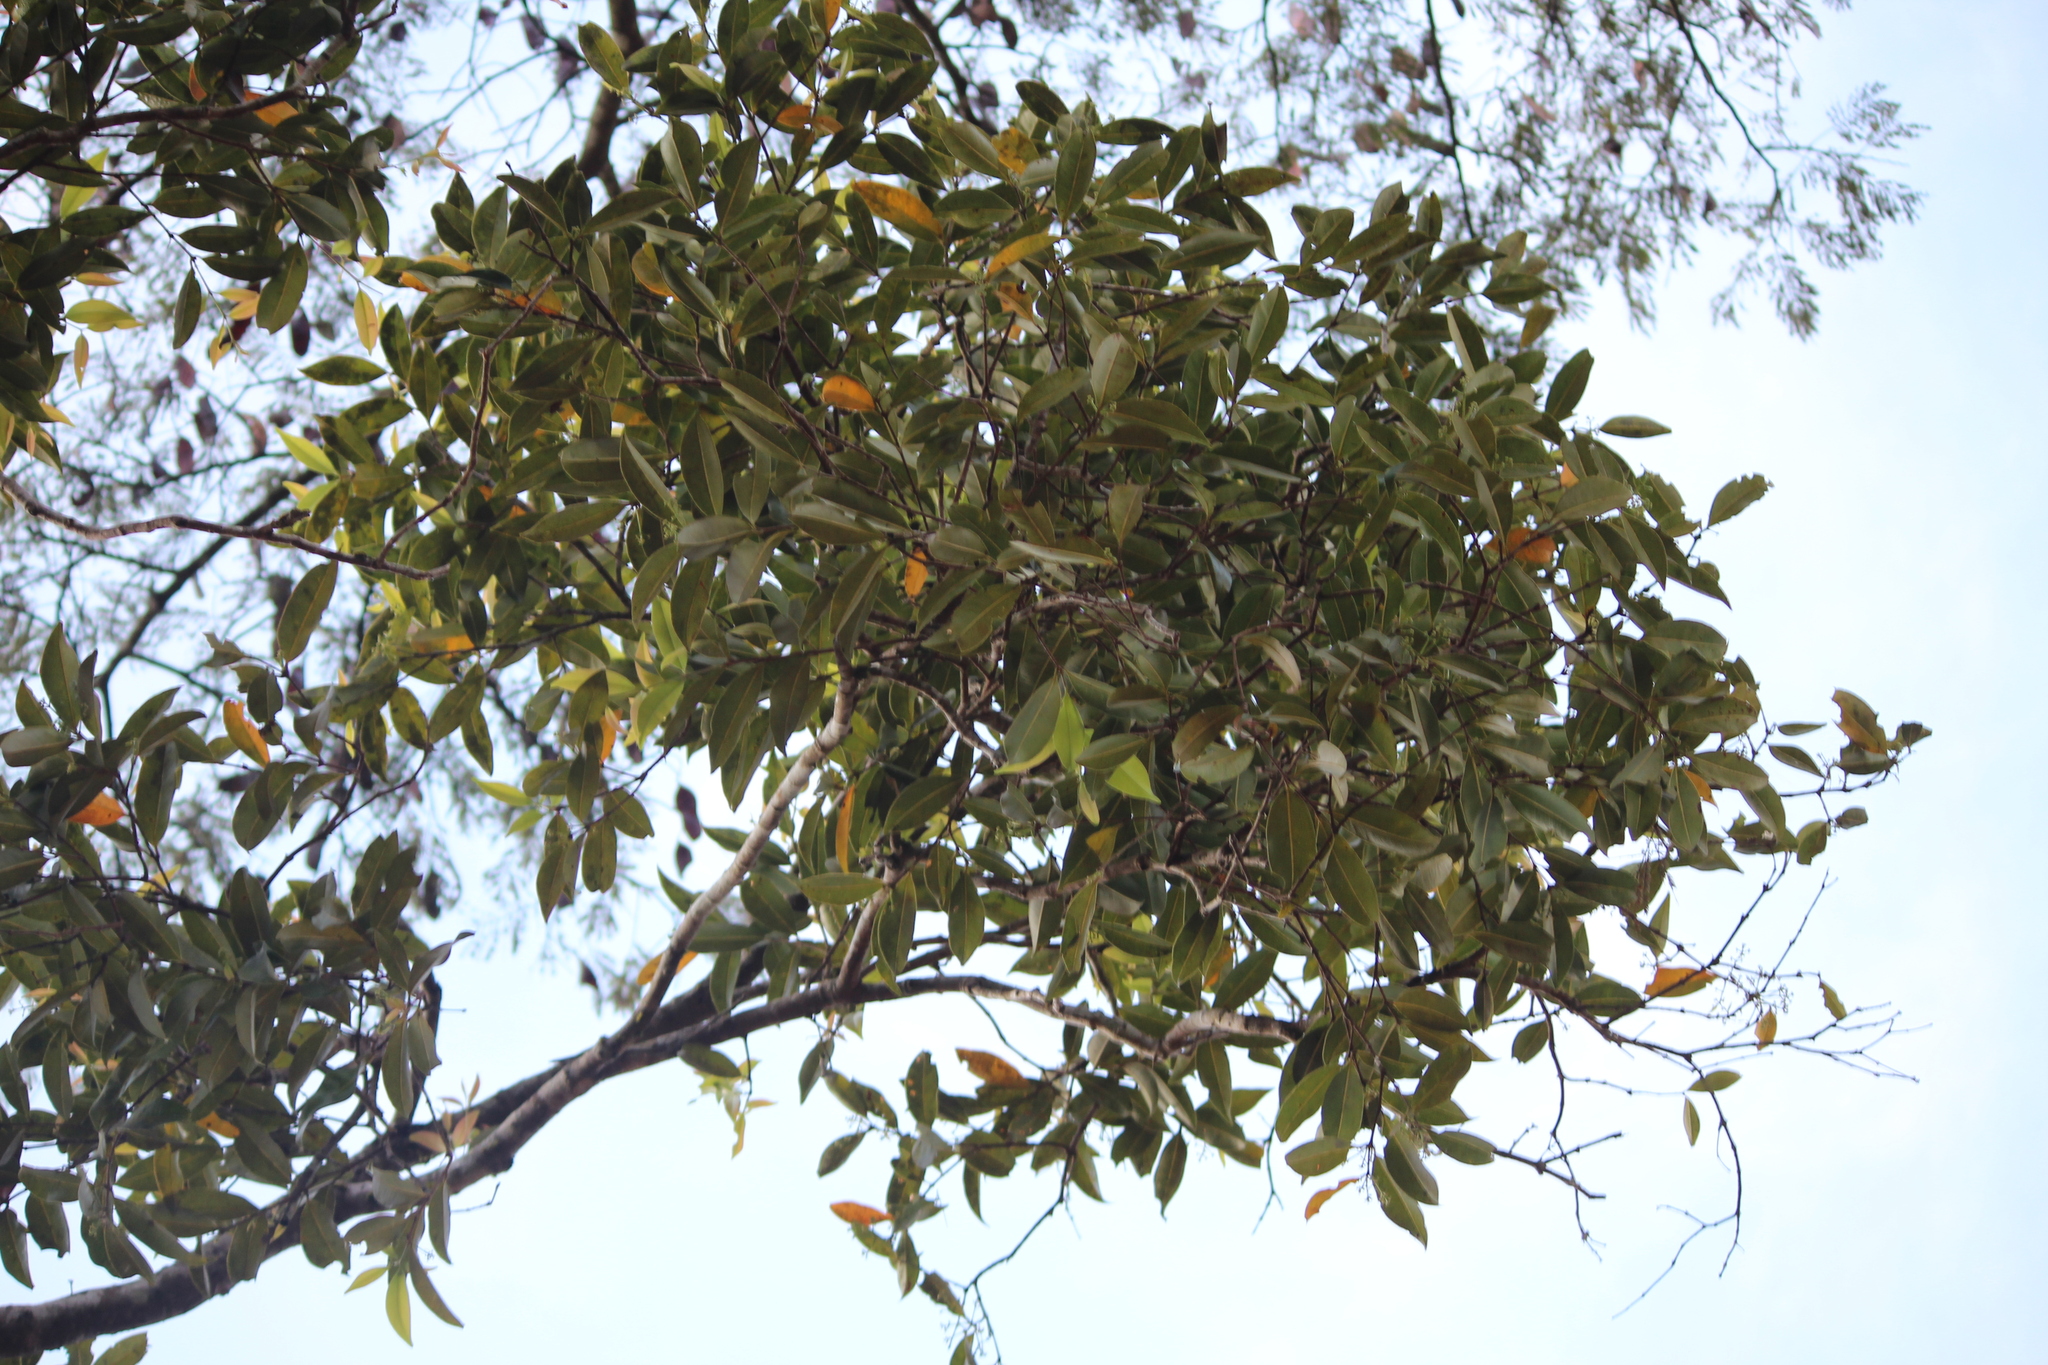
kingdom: Plantae
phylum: Tracheophyta
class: Magnoliopsida
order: Myrtales
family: Myrtaceae
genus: Syzygium
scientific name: Syzygium cumini
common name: Java plum
